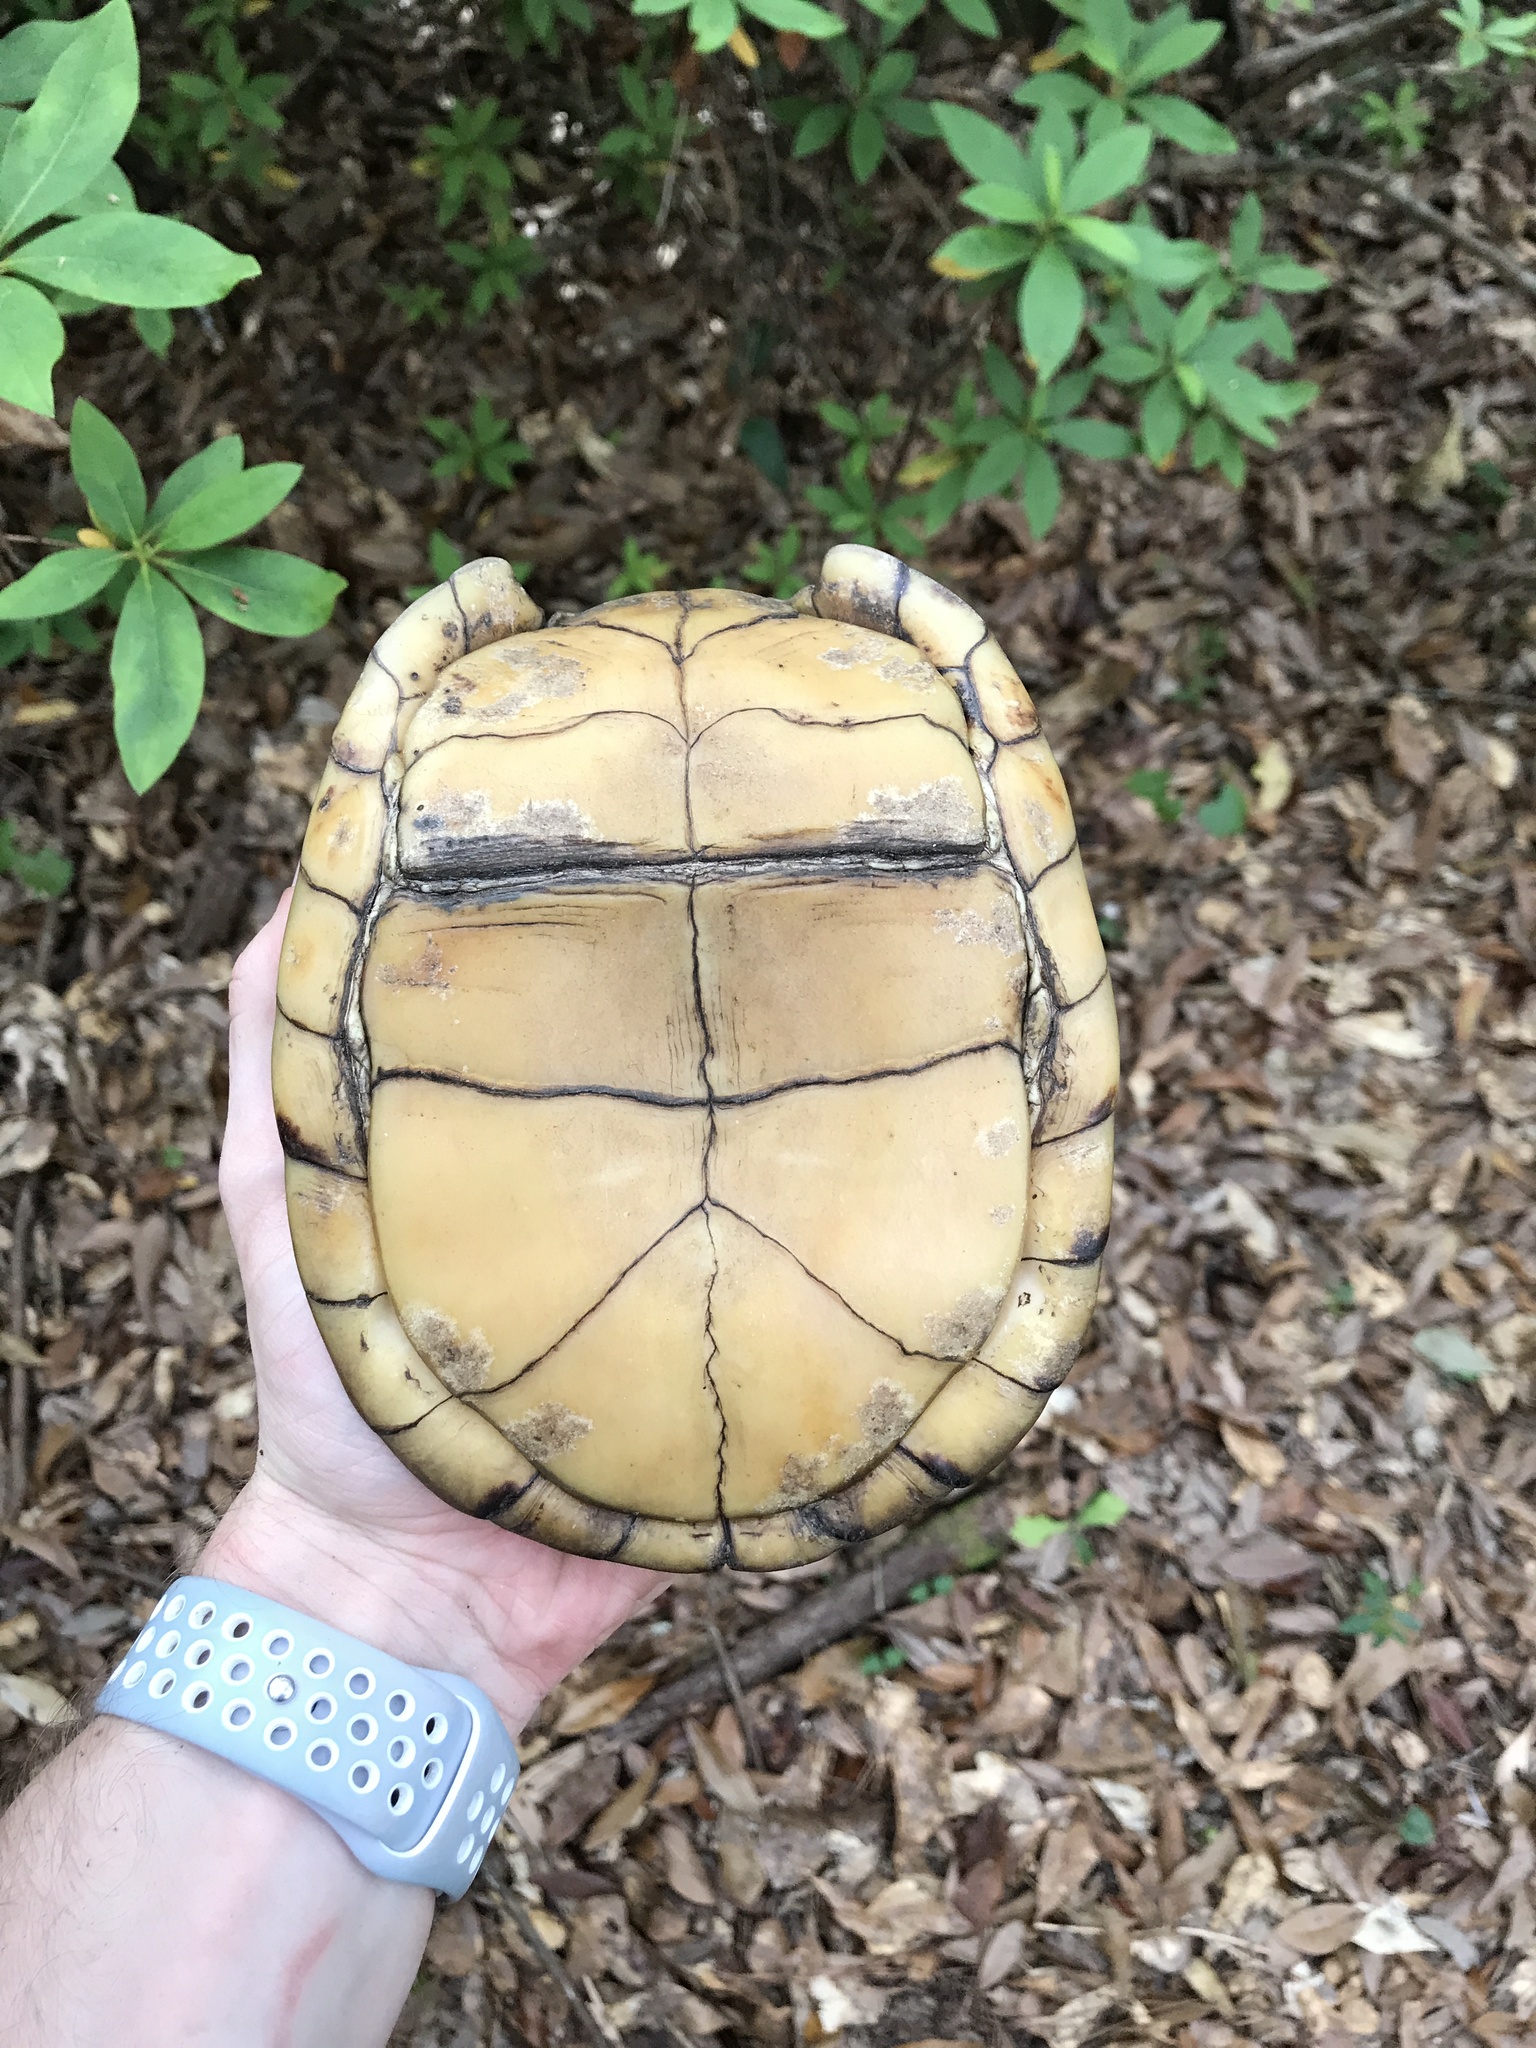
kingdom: Animalia
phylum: Chordata
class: Testudines
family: Emydidae
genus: Terrapene
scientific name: Terrapene carolina
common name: Common box turtle
